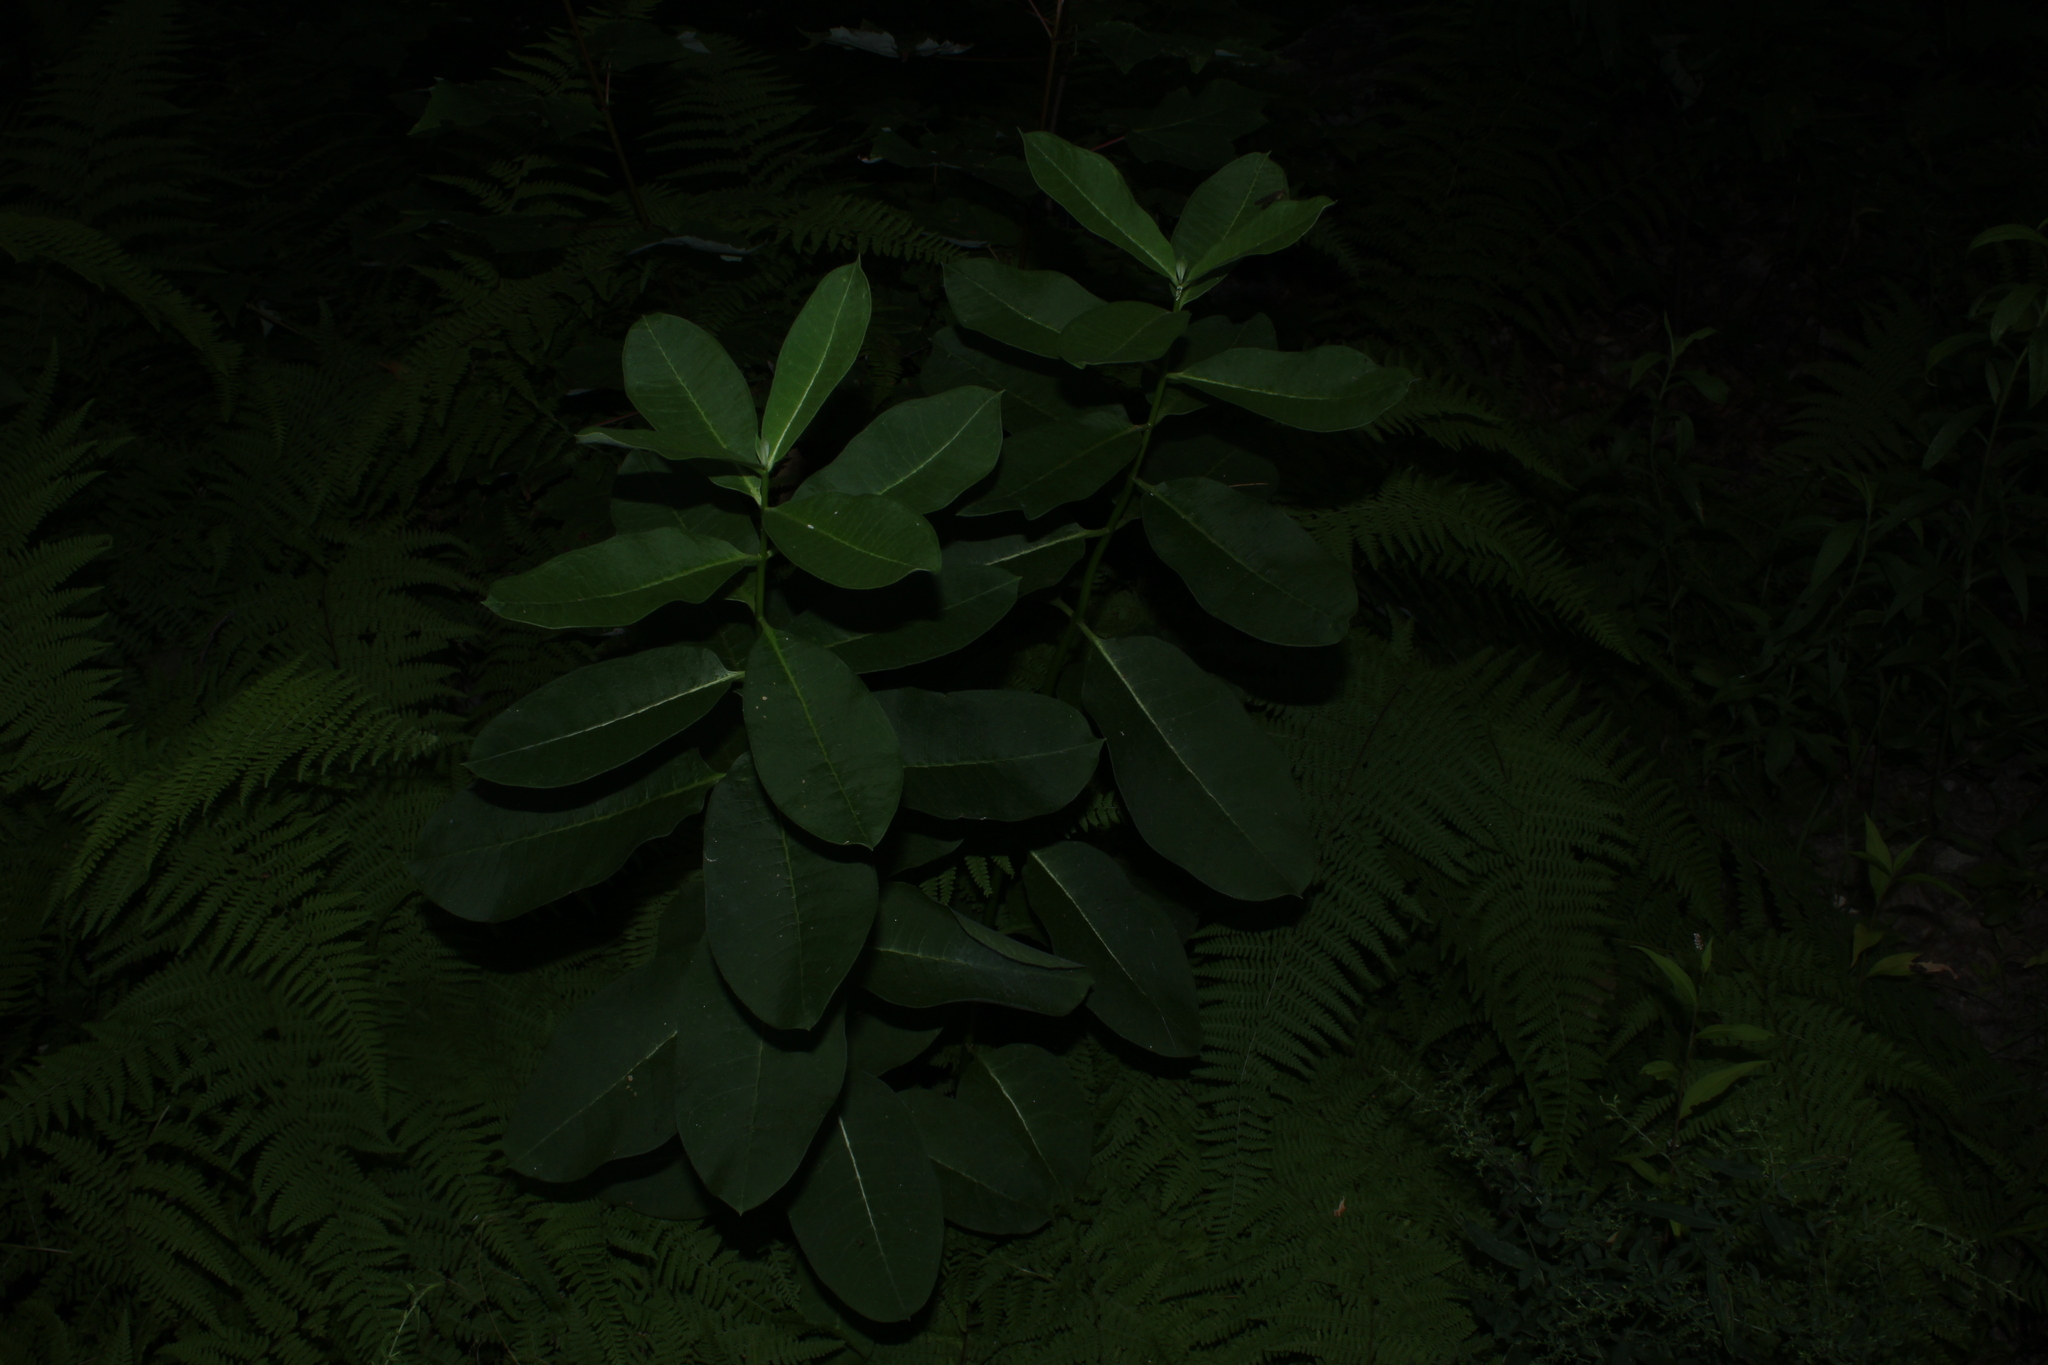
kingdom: Plantae
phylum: Tracheophyta
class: Magnoliopsida
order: Gentianales
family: Apocynaceae
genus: Asclepias
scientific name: Asclepias syriaca
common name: Common milkweed
